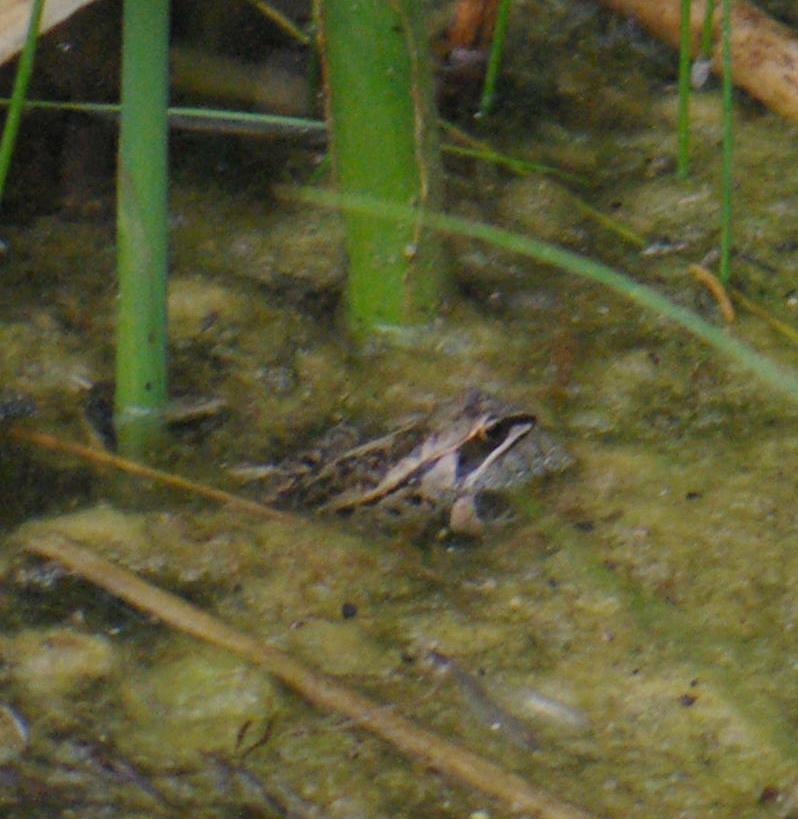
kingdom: Animalia
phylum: Chordata
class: Amphibia
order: Anura
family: Ranidae
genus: Lithobates
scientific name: Lithobates sylvaticus
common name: Wood frog
